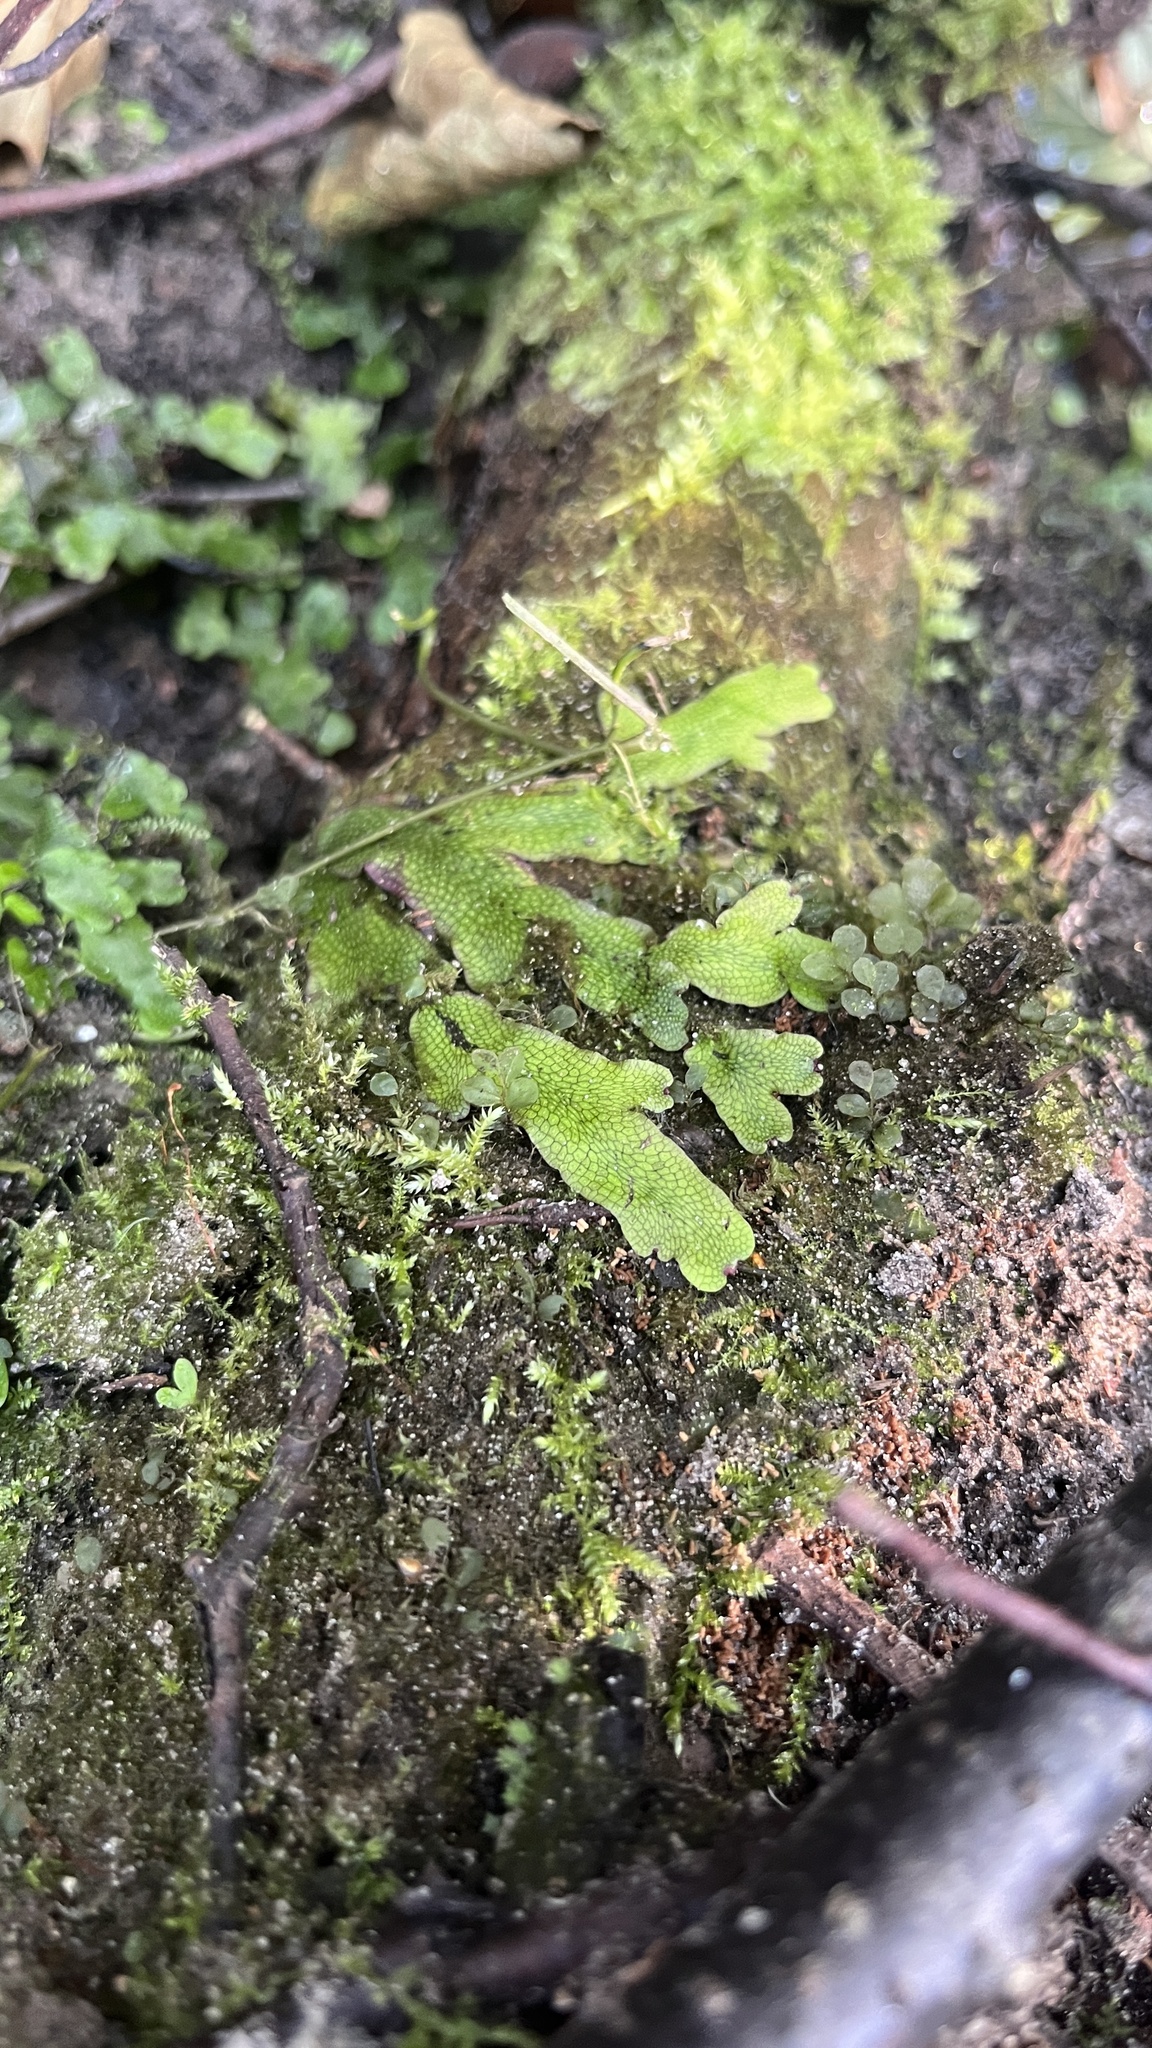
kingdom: Plantae
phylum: Marchantiophyta
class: Marchantiopsida
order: Marchantiales
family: Conocephalaceae
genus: Conocephalum
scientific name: Conocephalum salebrosum
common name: Cat-tongue liverwort
